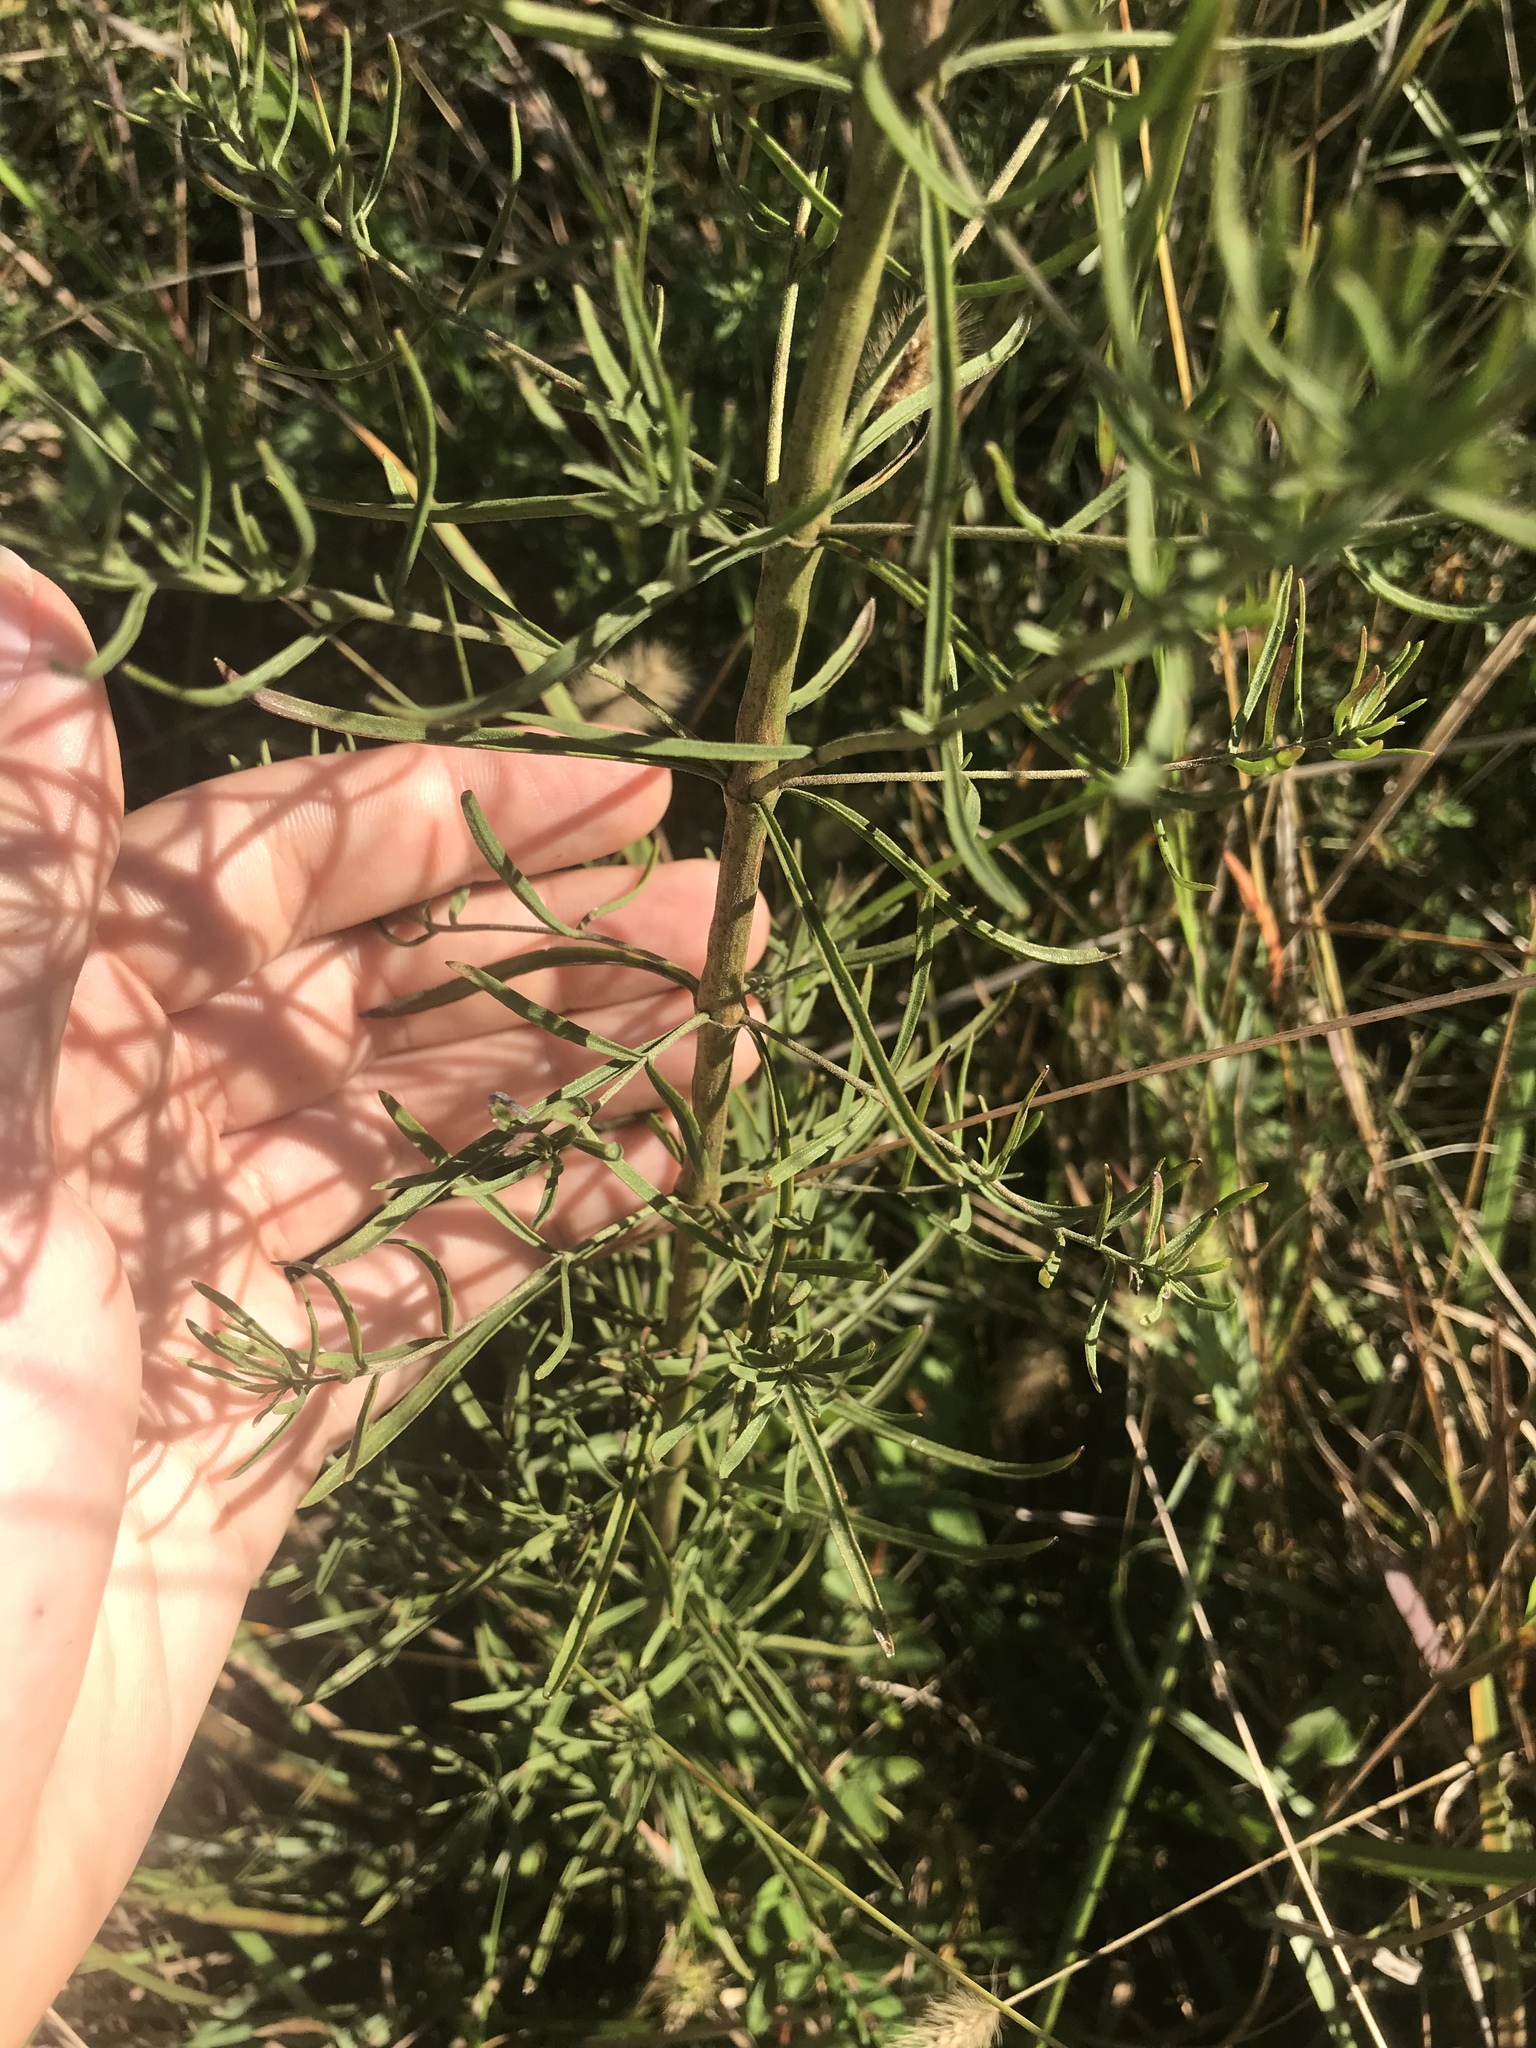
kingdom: Plantae
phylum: Tracheophyta
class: Magnoliopsida
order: Asterales
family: Asteraceae
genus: Eupatorium
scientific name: Eupatorium hyssopifolium
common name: Hyssop-leaf thoroughwort
